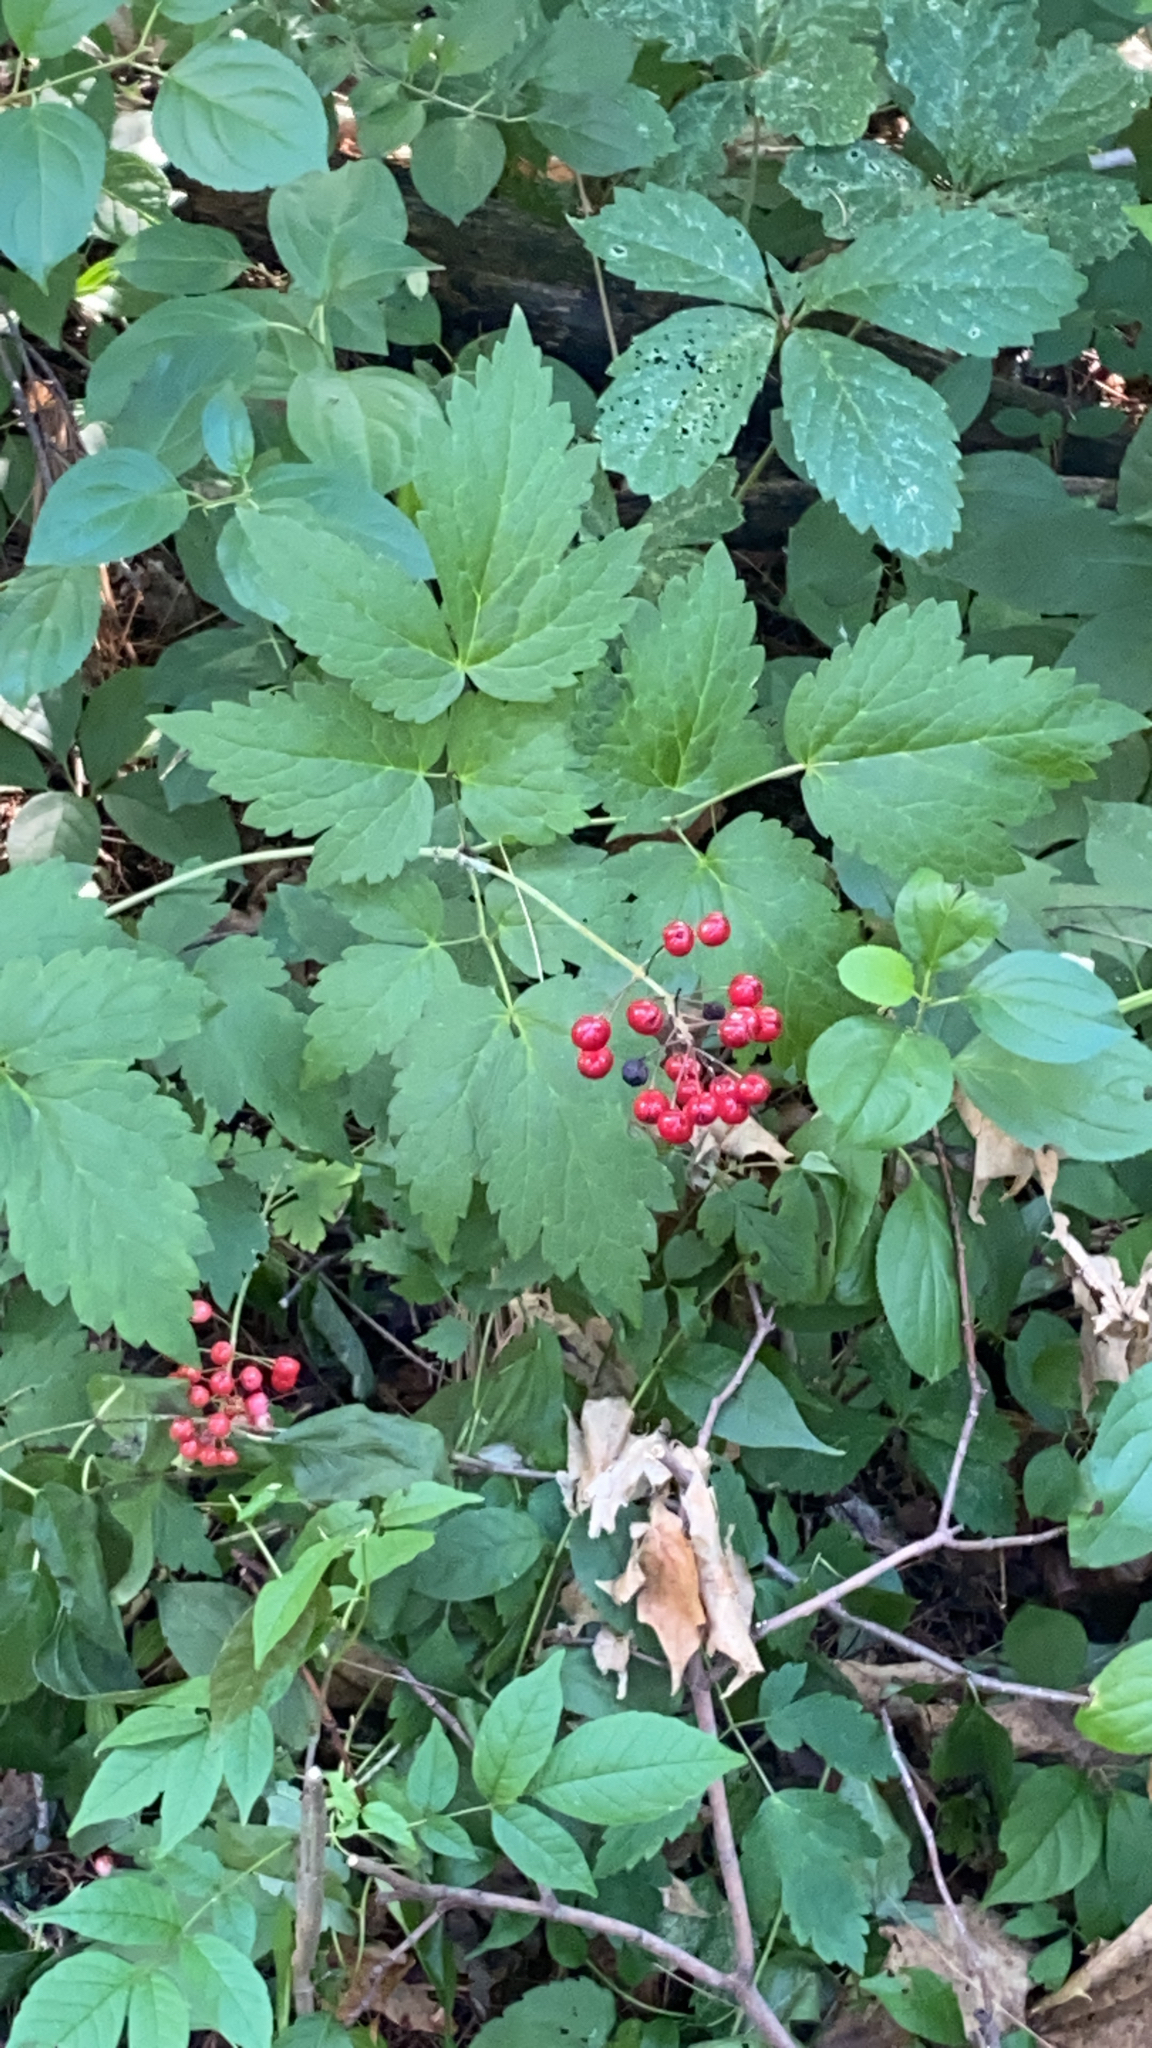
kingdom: Plantae
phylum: Tracheophyta
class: Magnoliopsida
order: Ranunculales
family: Ranunculaceae
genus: Actaea
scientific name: Actaea rubra
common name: Red baneberry
